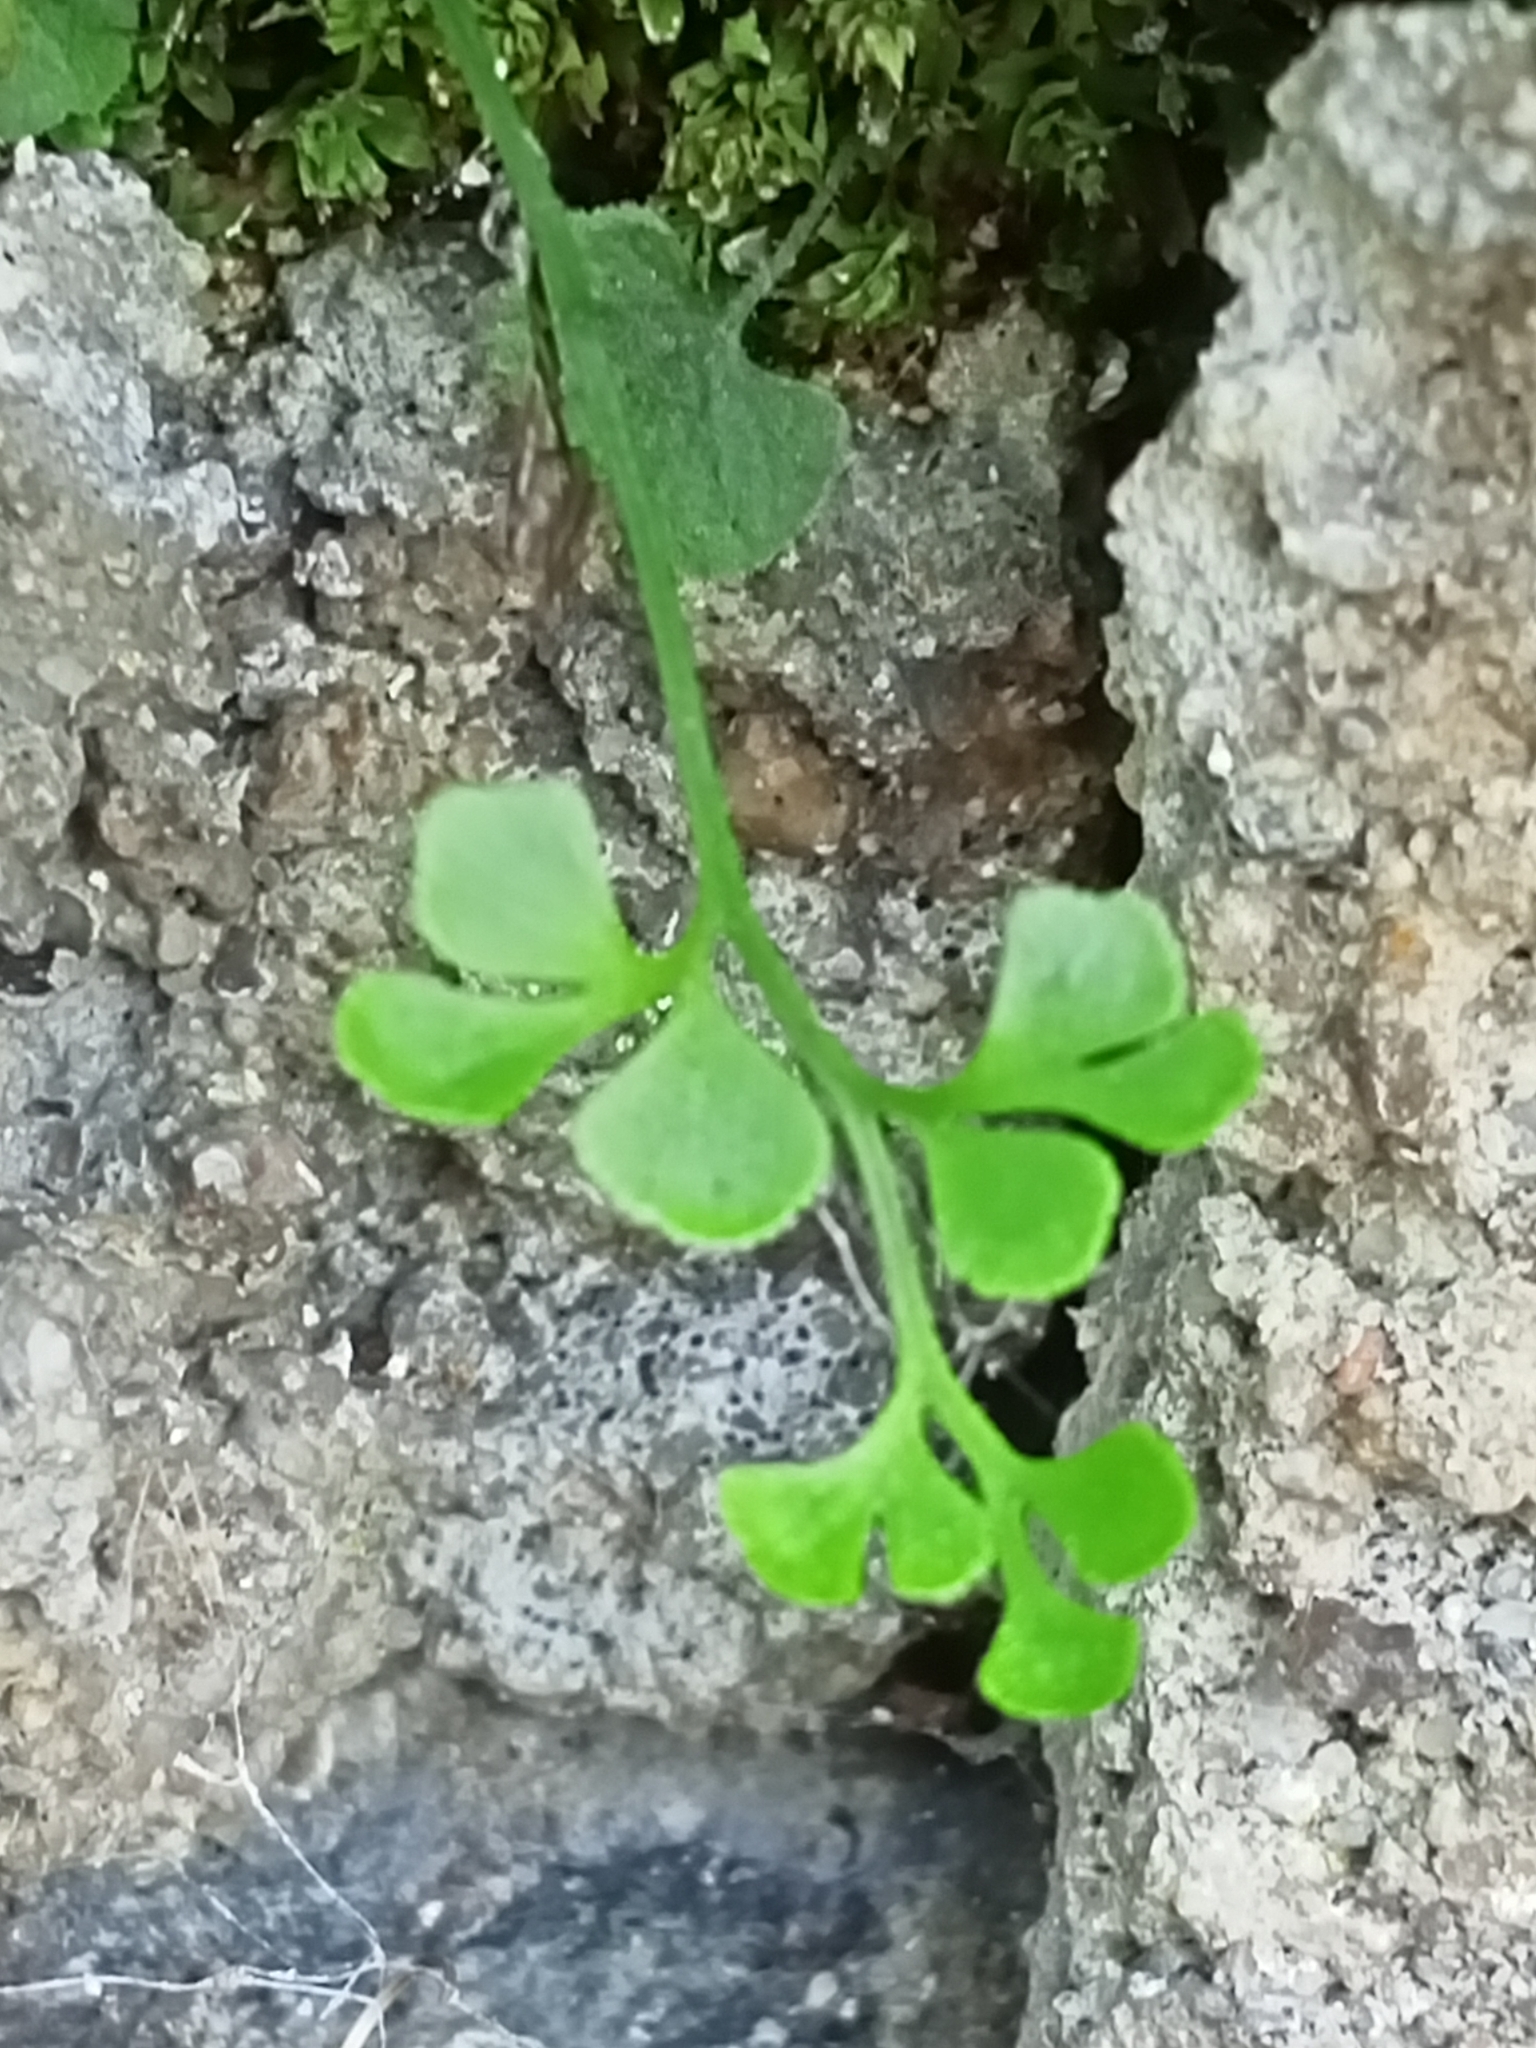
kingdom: Plantae
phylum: Tracheophyta
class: Polypodiopsida
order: Polypodiales
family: Aspleniaceae
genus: Asplenium
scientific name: Asplenium ruta-muraria
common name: Wall-rue
